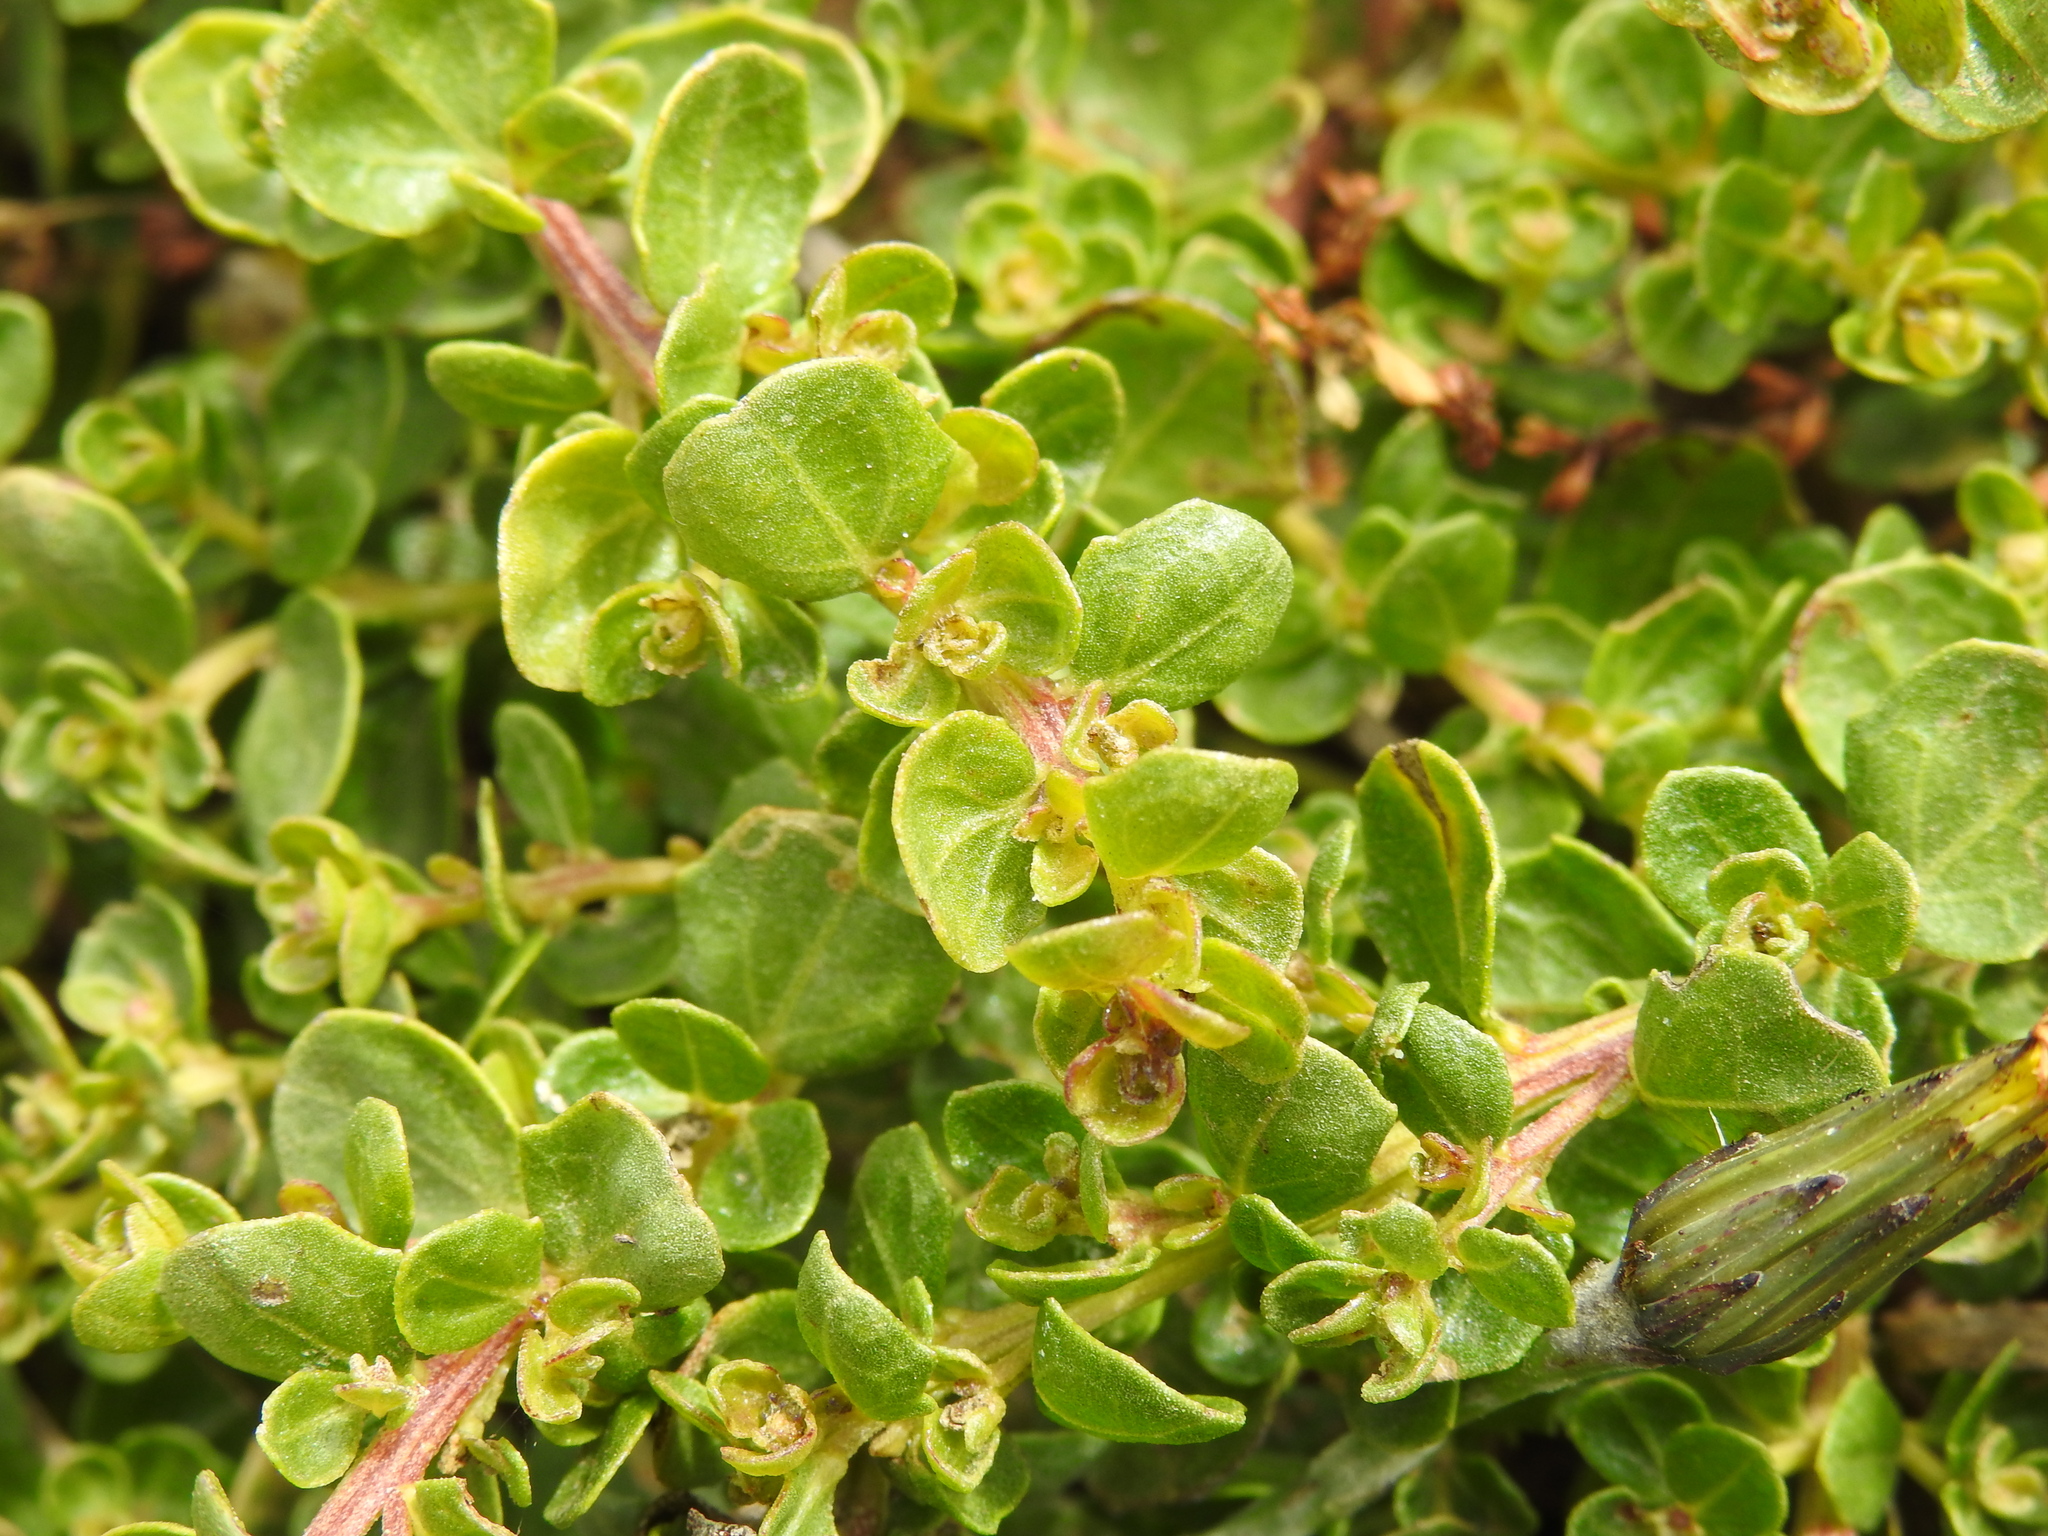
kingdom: Plantae
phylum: Tracheophyta
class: Magnoliopsida
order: Asterales
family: Asteraceae
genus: Baccharis
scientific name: Baccharis pilularis
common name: Coyotebrush
